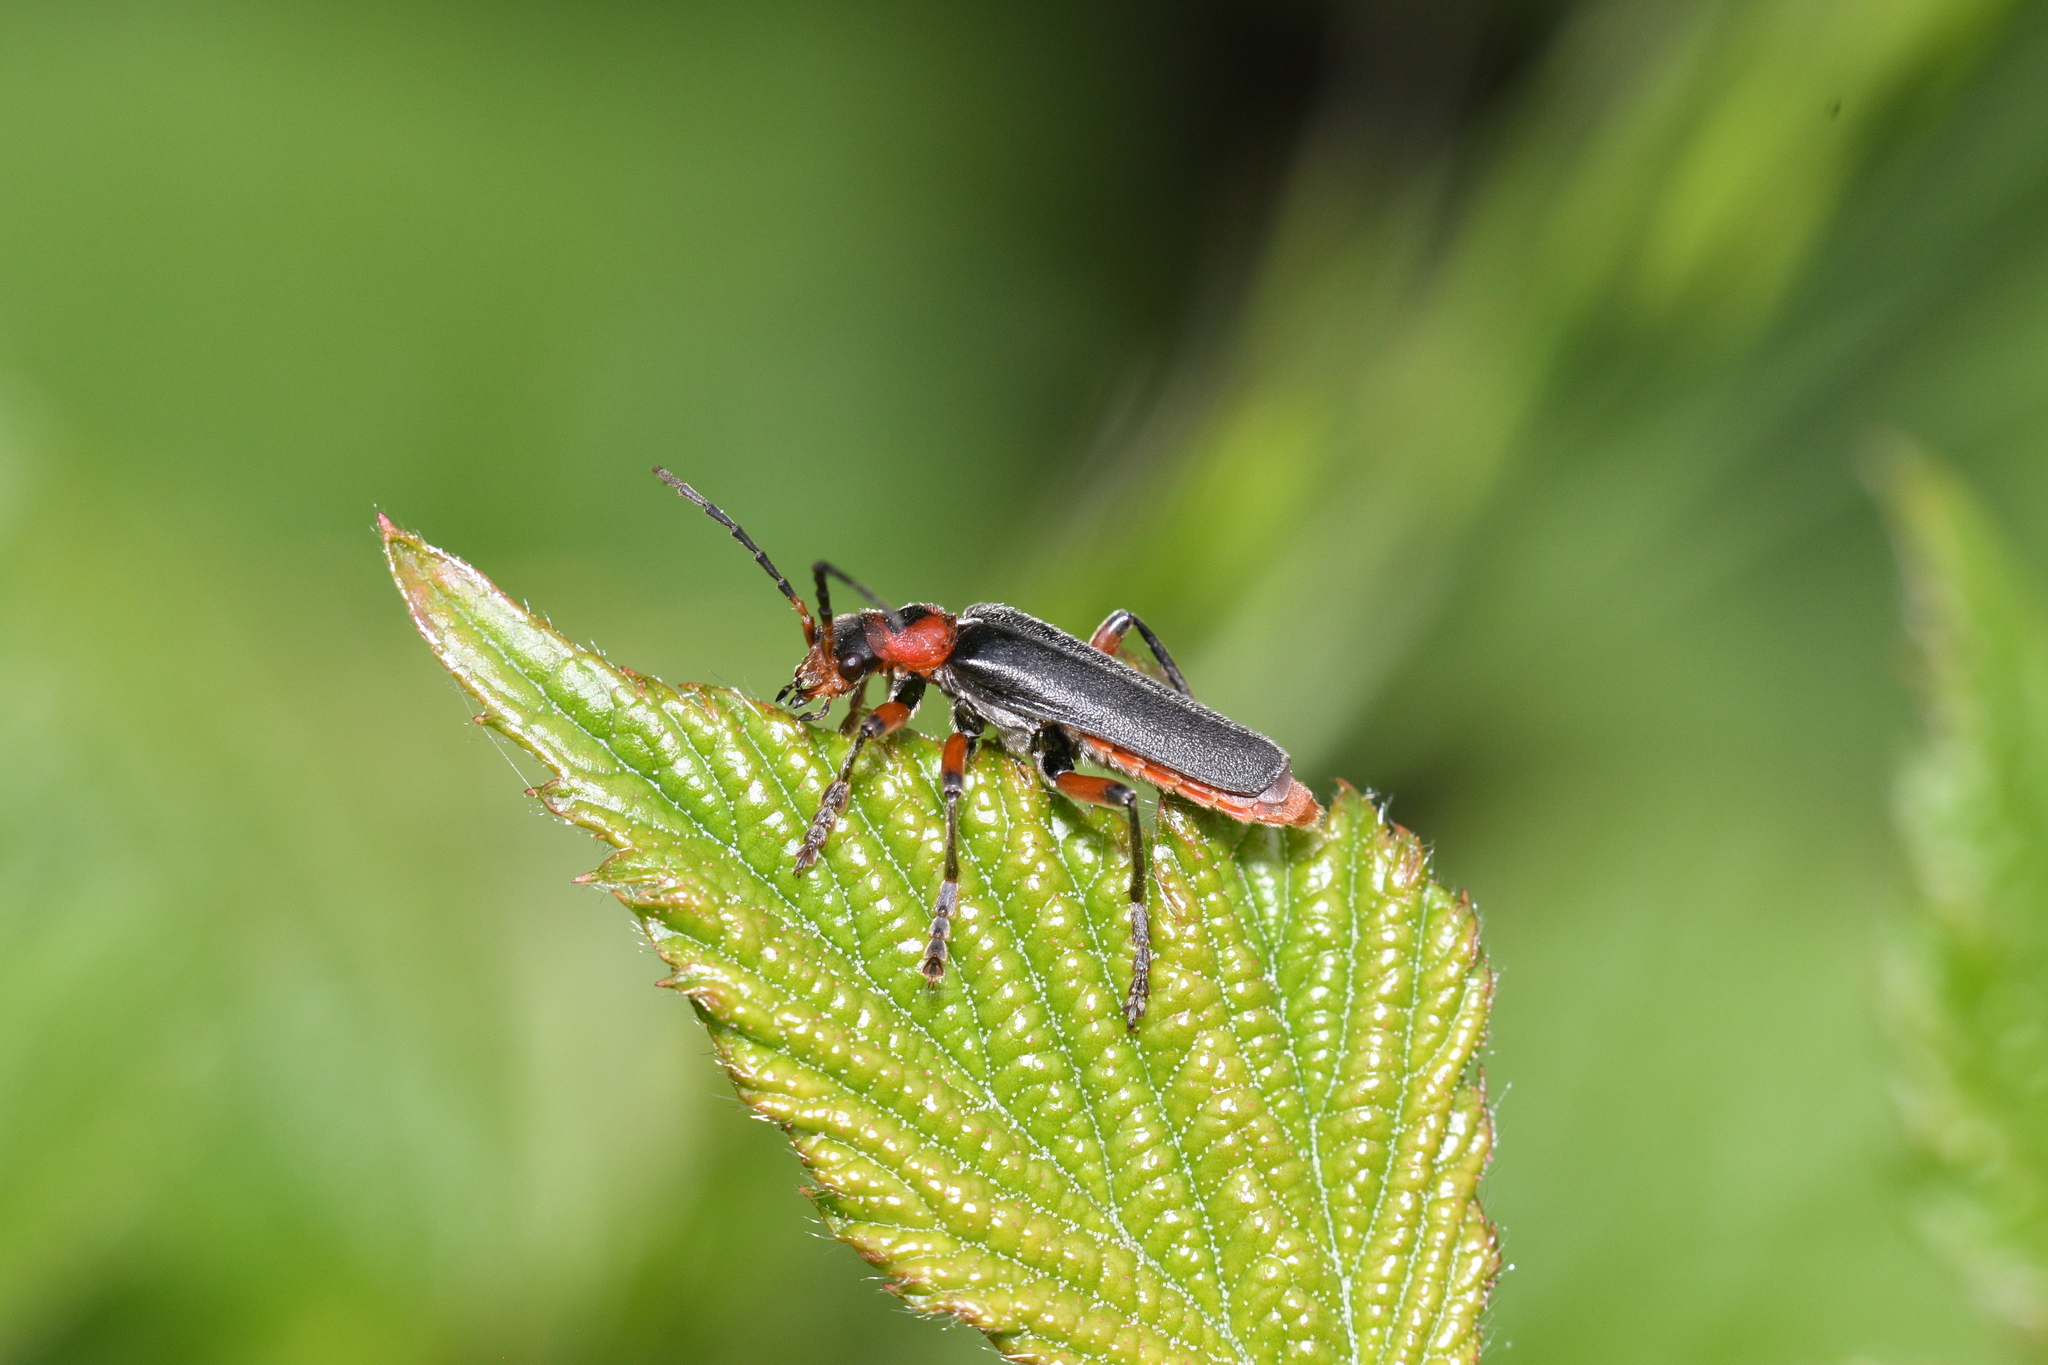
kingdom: Animalia
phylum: Arthropoda
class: Insecta
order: Coleoptera
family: Cantharidae
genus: Cantharis
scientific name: Cantharis rustica
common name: Soldier beetle
